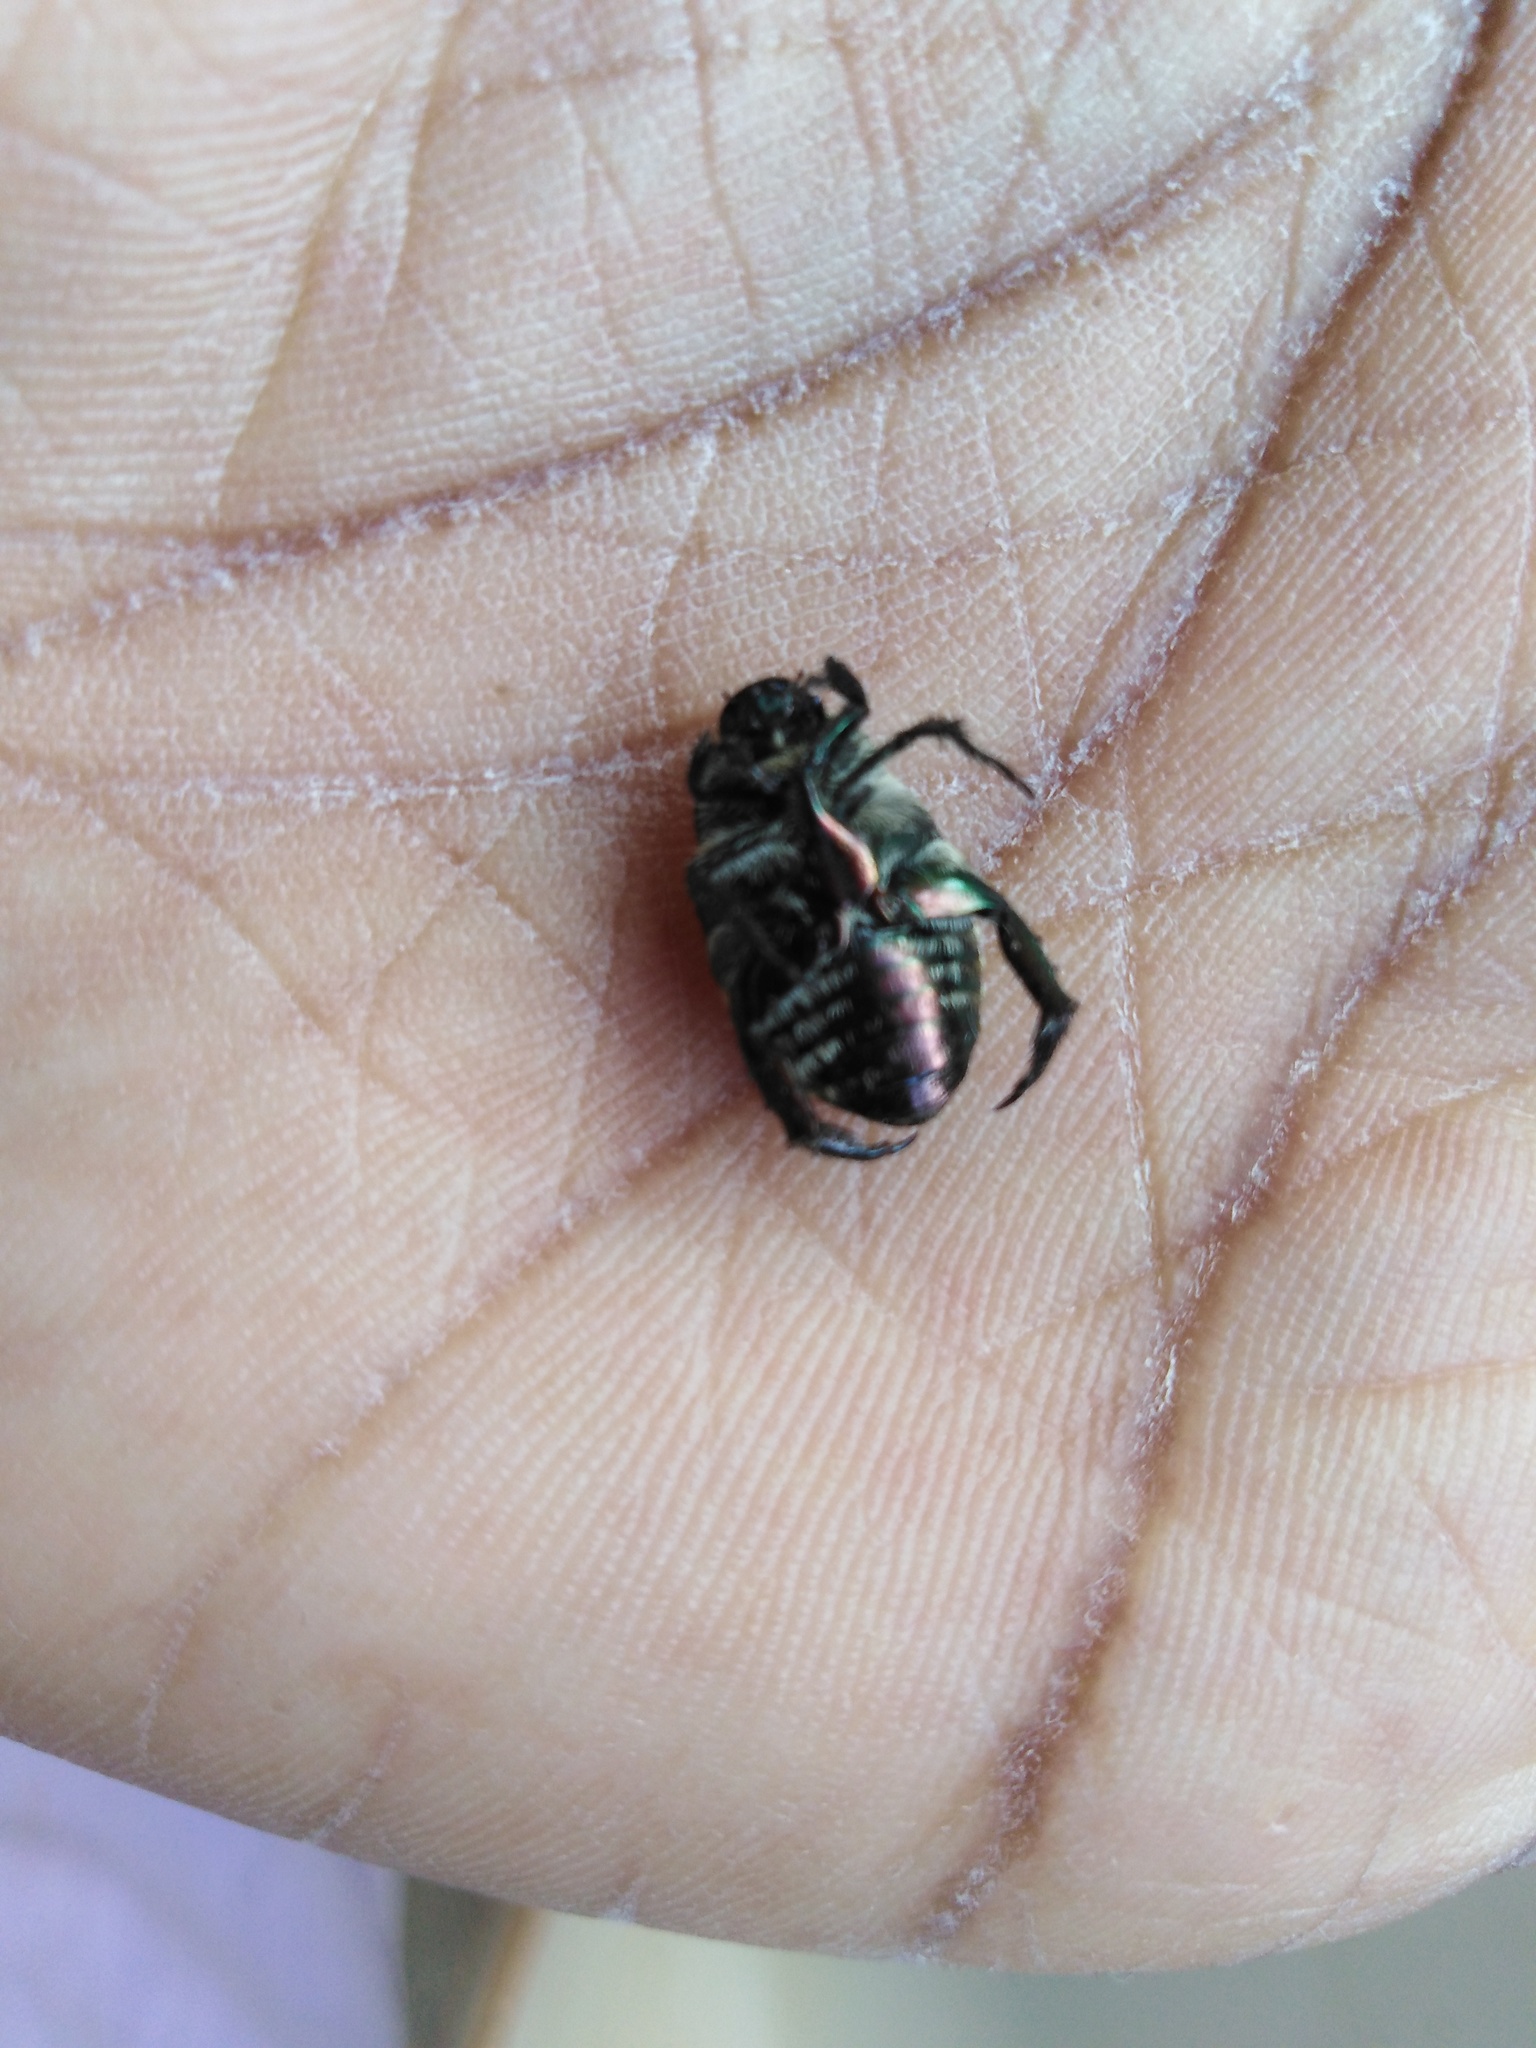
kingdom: Animalia
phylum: Arthropoda
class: Insecta
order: Coleoptera
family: Scarabaeidae
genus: Popillia
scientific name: Popillia propinqua
